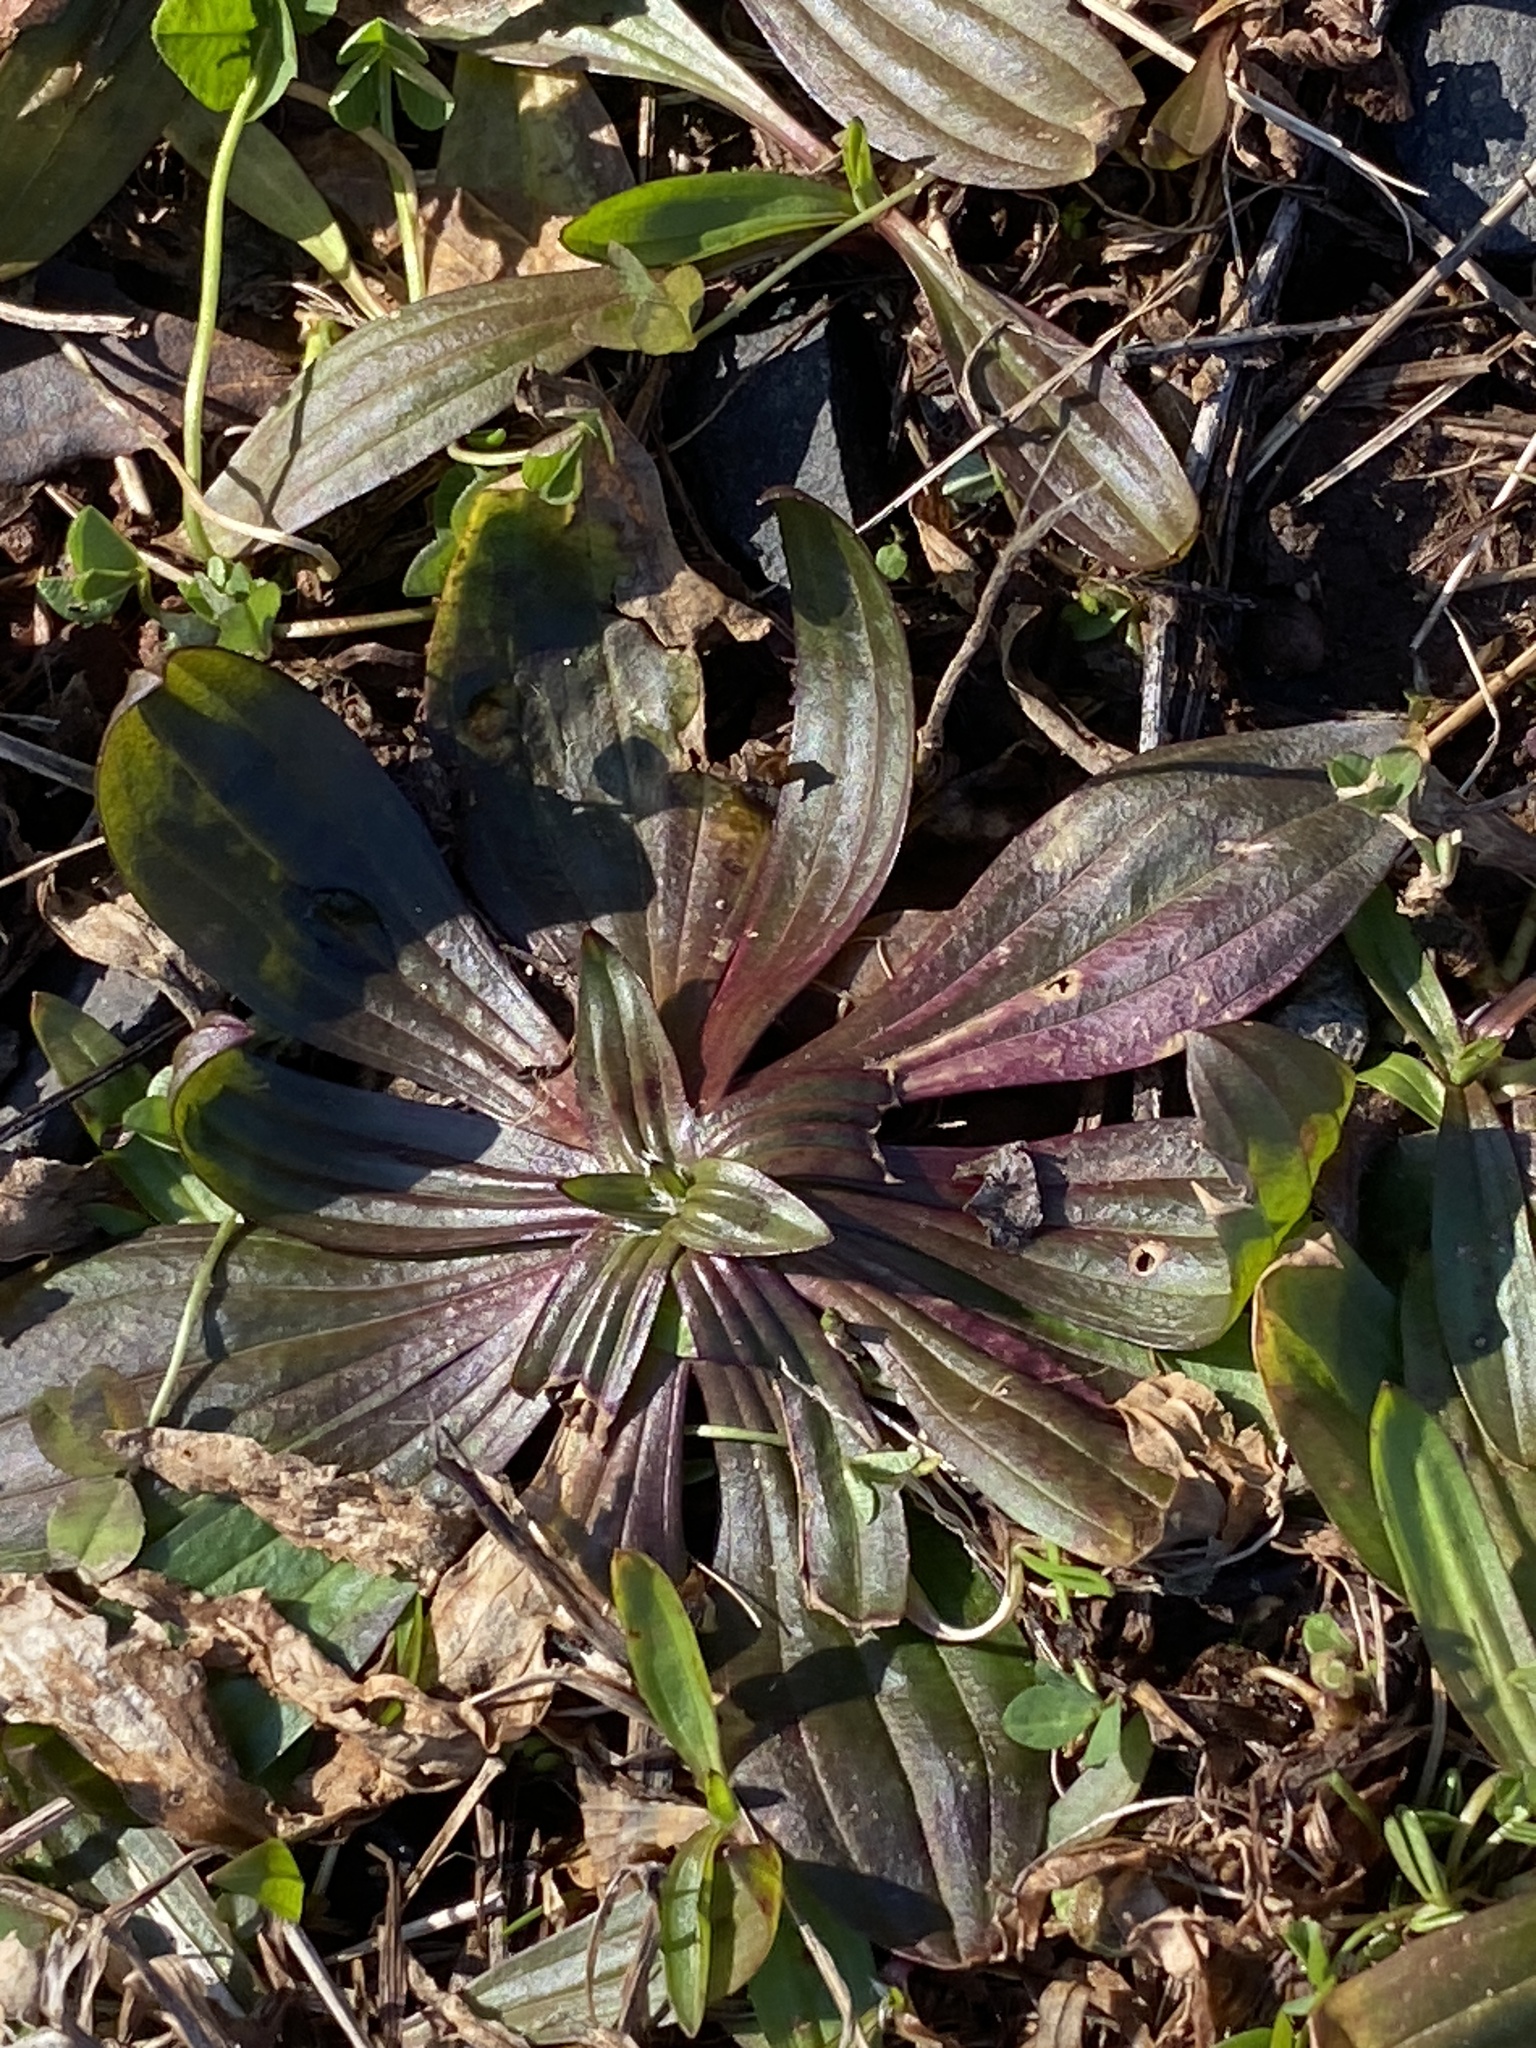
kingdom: Plantae
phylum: Tracheophyta
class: Magnoliopsida
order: Lamiales
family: Plantaginaceae
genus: Plantago
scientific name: Plantago lanceolata
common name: Ribwort plantain
